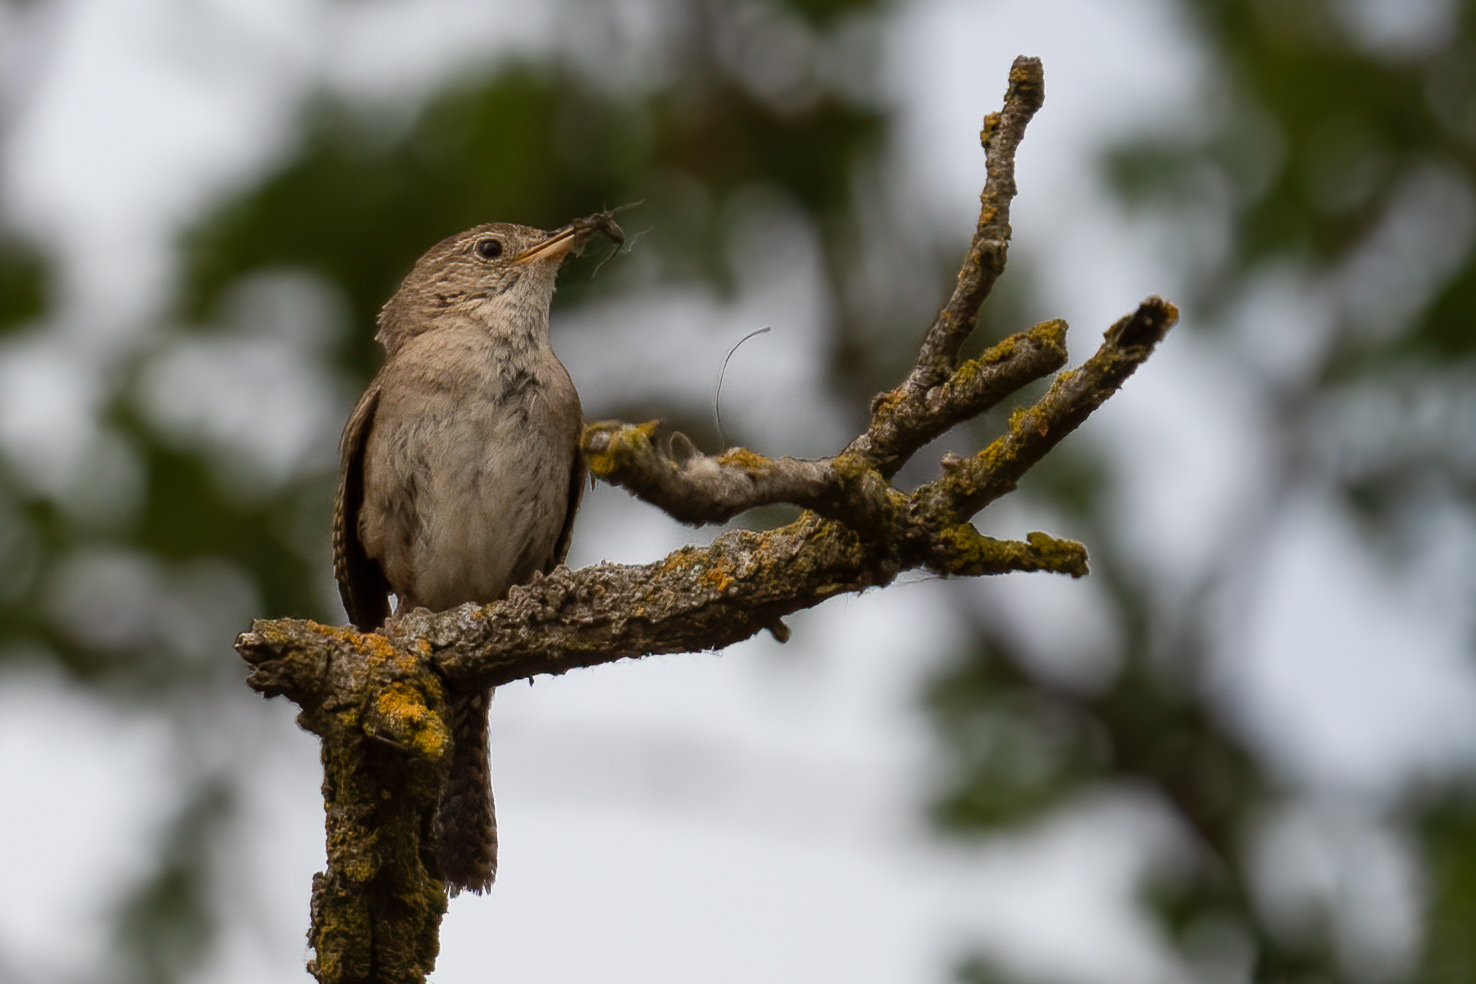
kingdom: Animalia
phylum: Chordata
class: Aves
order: Passeriformes
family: Troglodytidae
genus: Troglodytes
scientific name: Troglodytes aedon
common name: House wren
